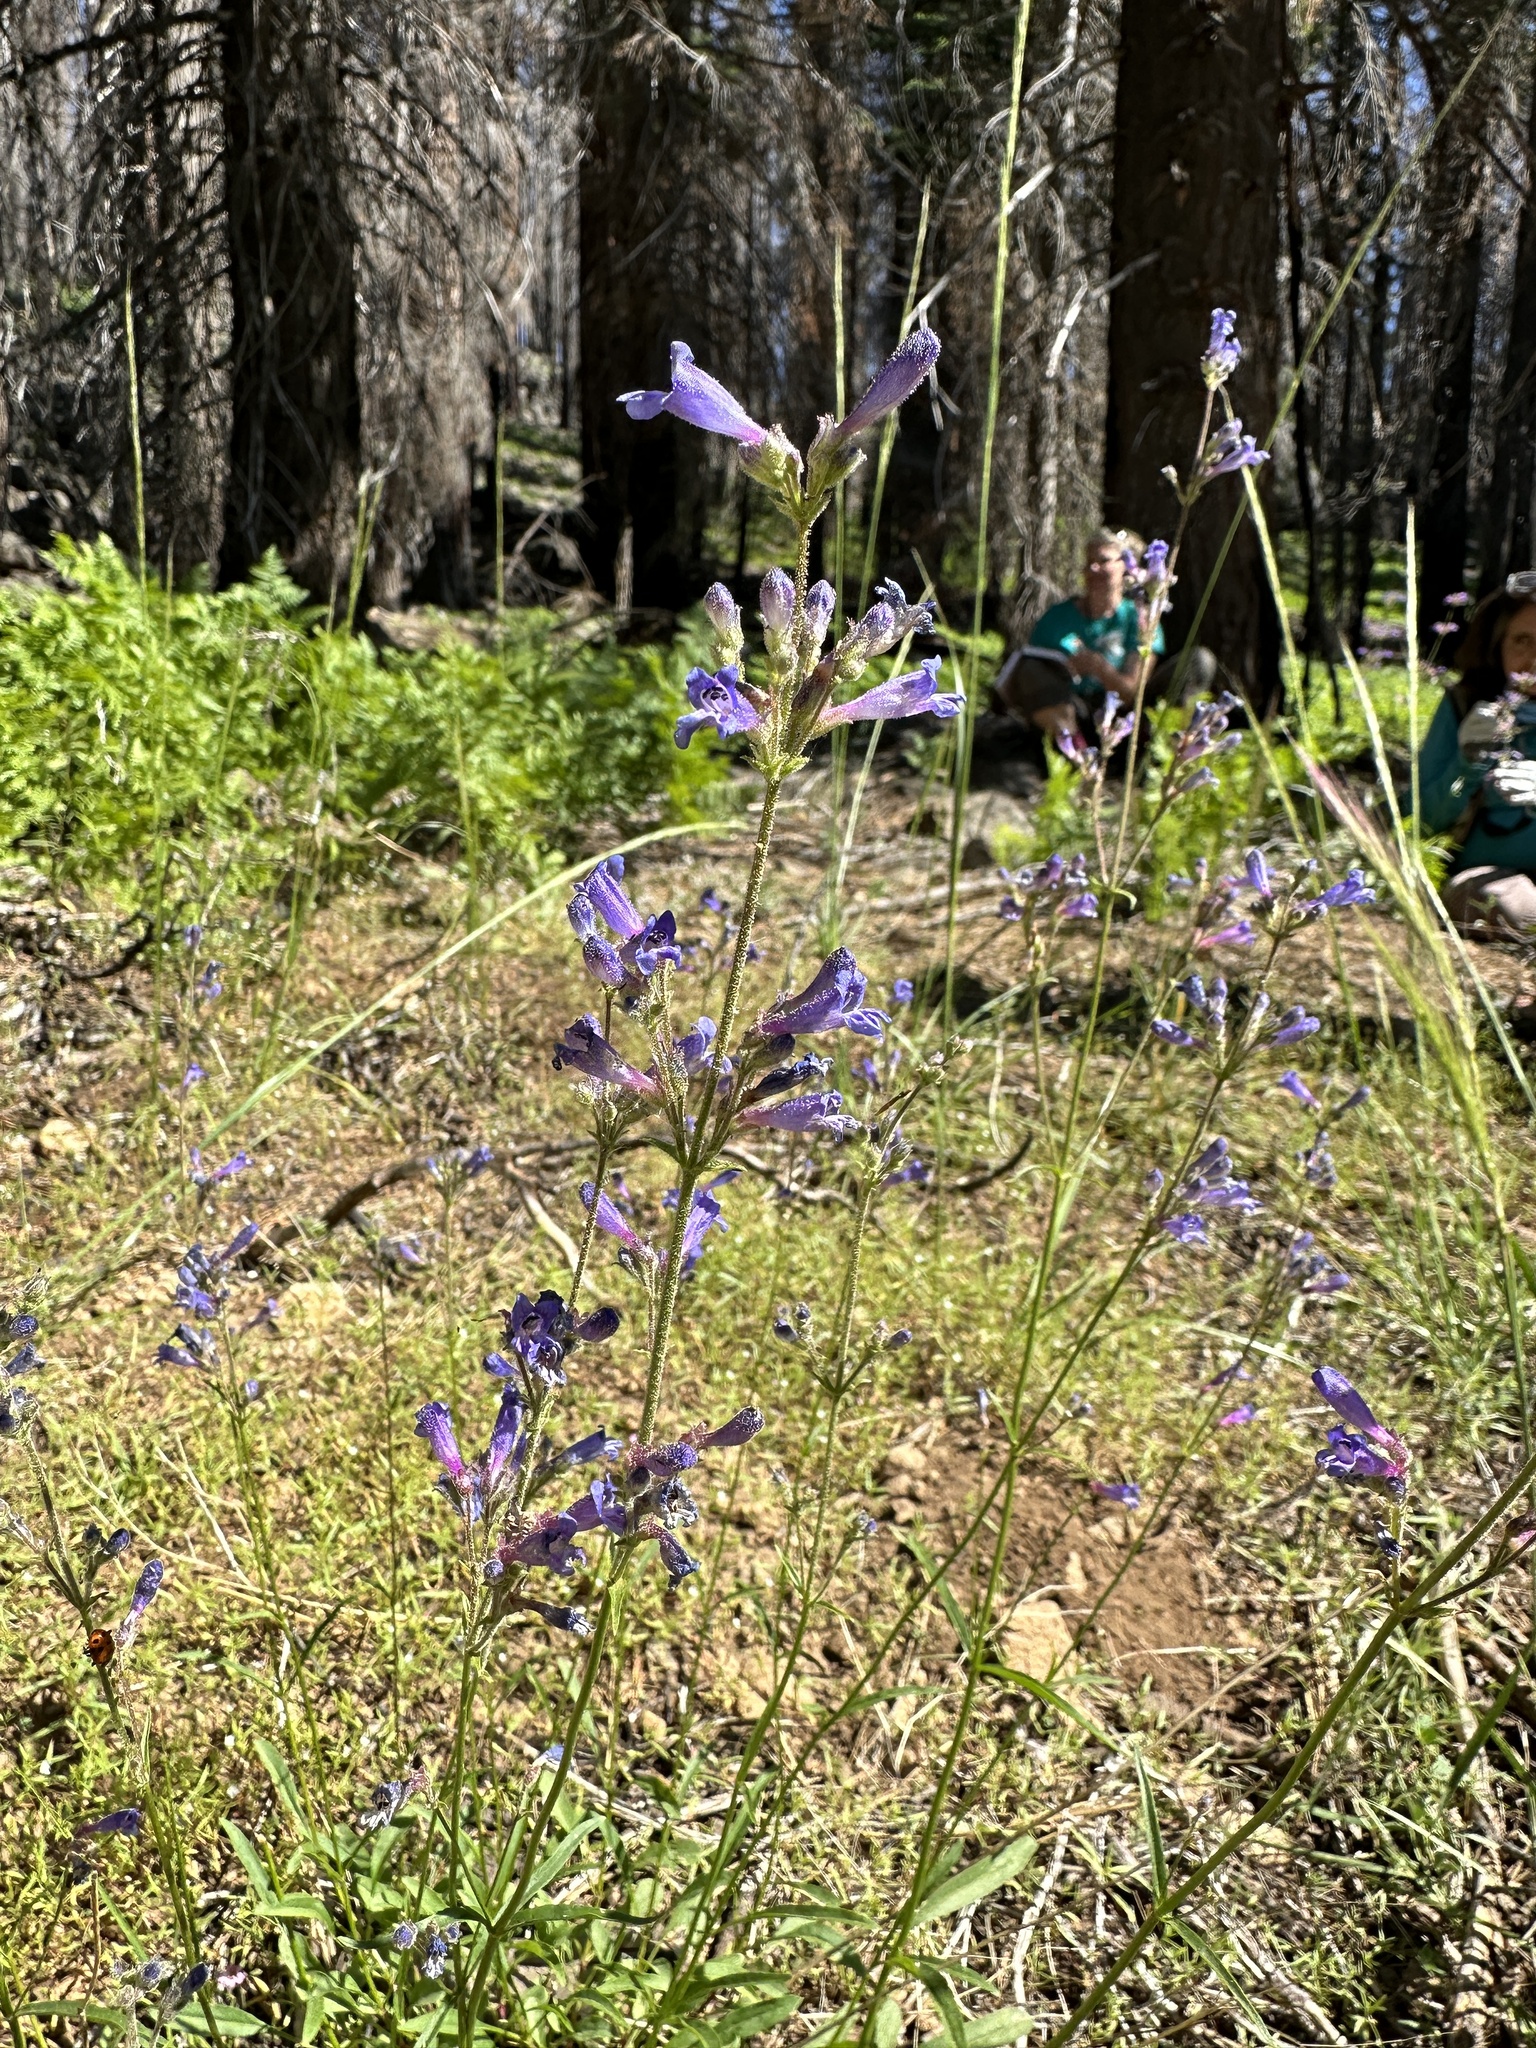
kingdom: Plantae
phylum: Tracheophyta
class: Magnoliopsida
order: Lamiales
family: Plantaginaceae
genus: Penstemon
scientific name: Penstemon gracilentus
